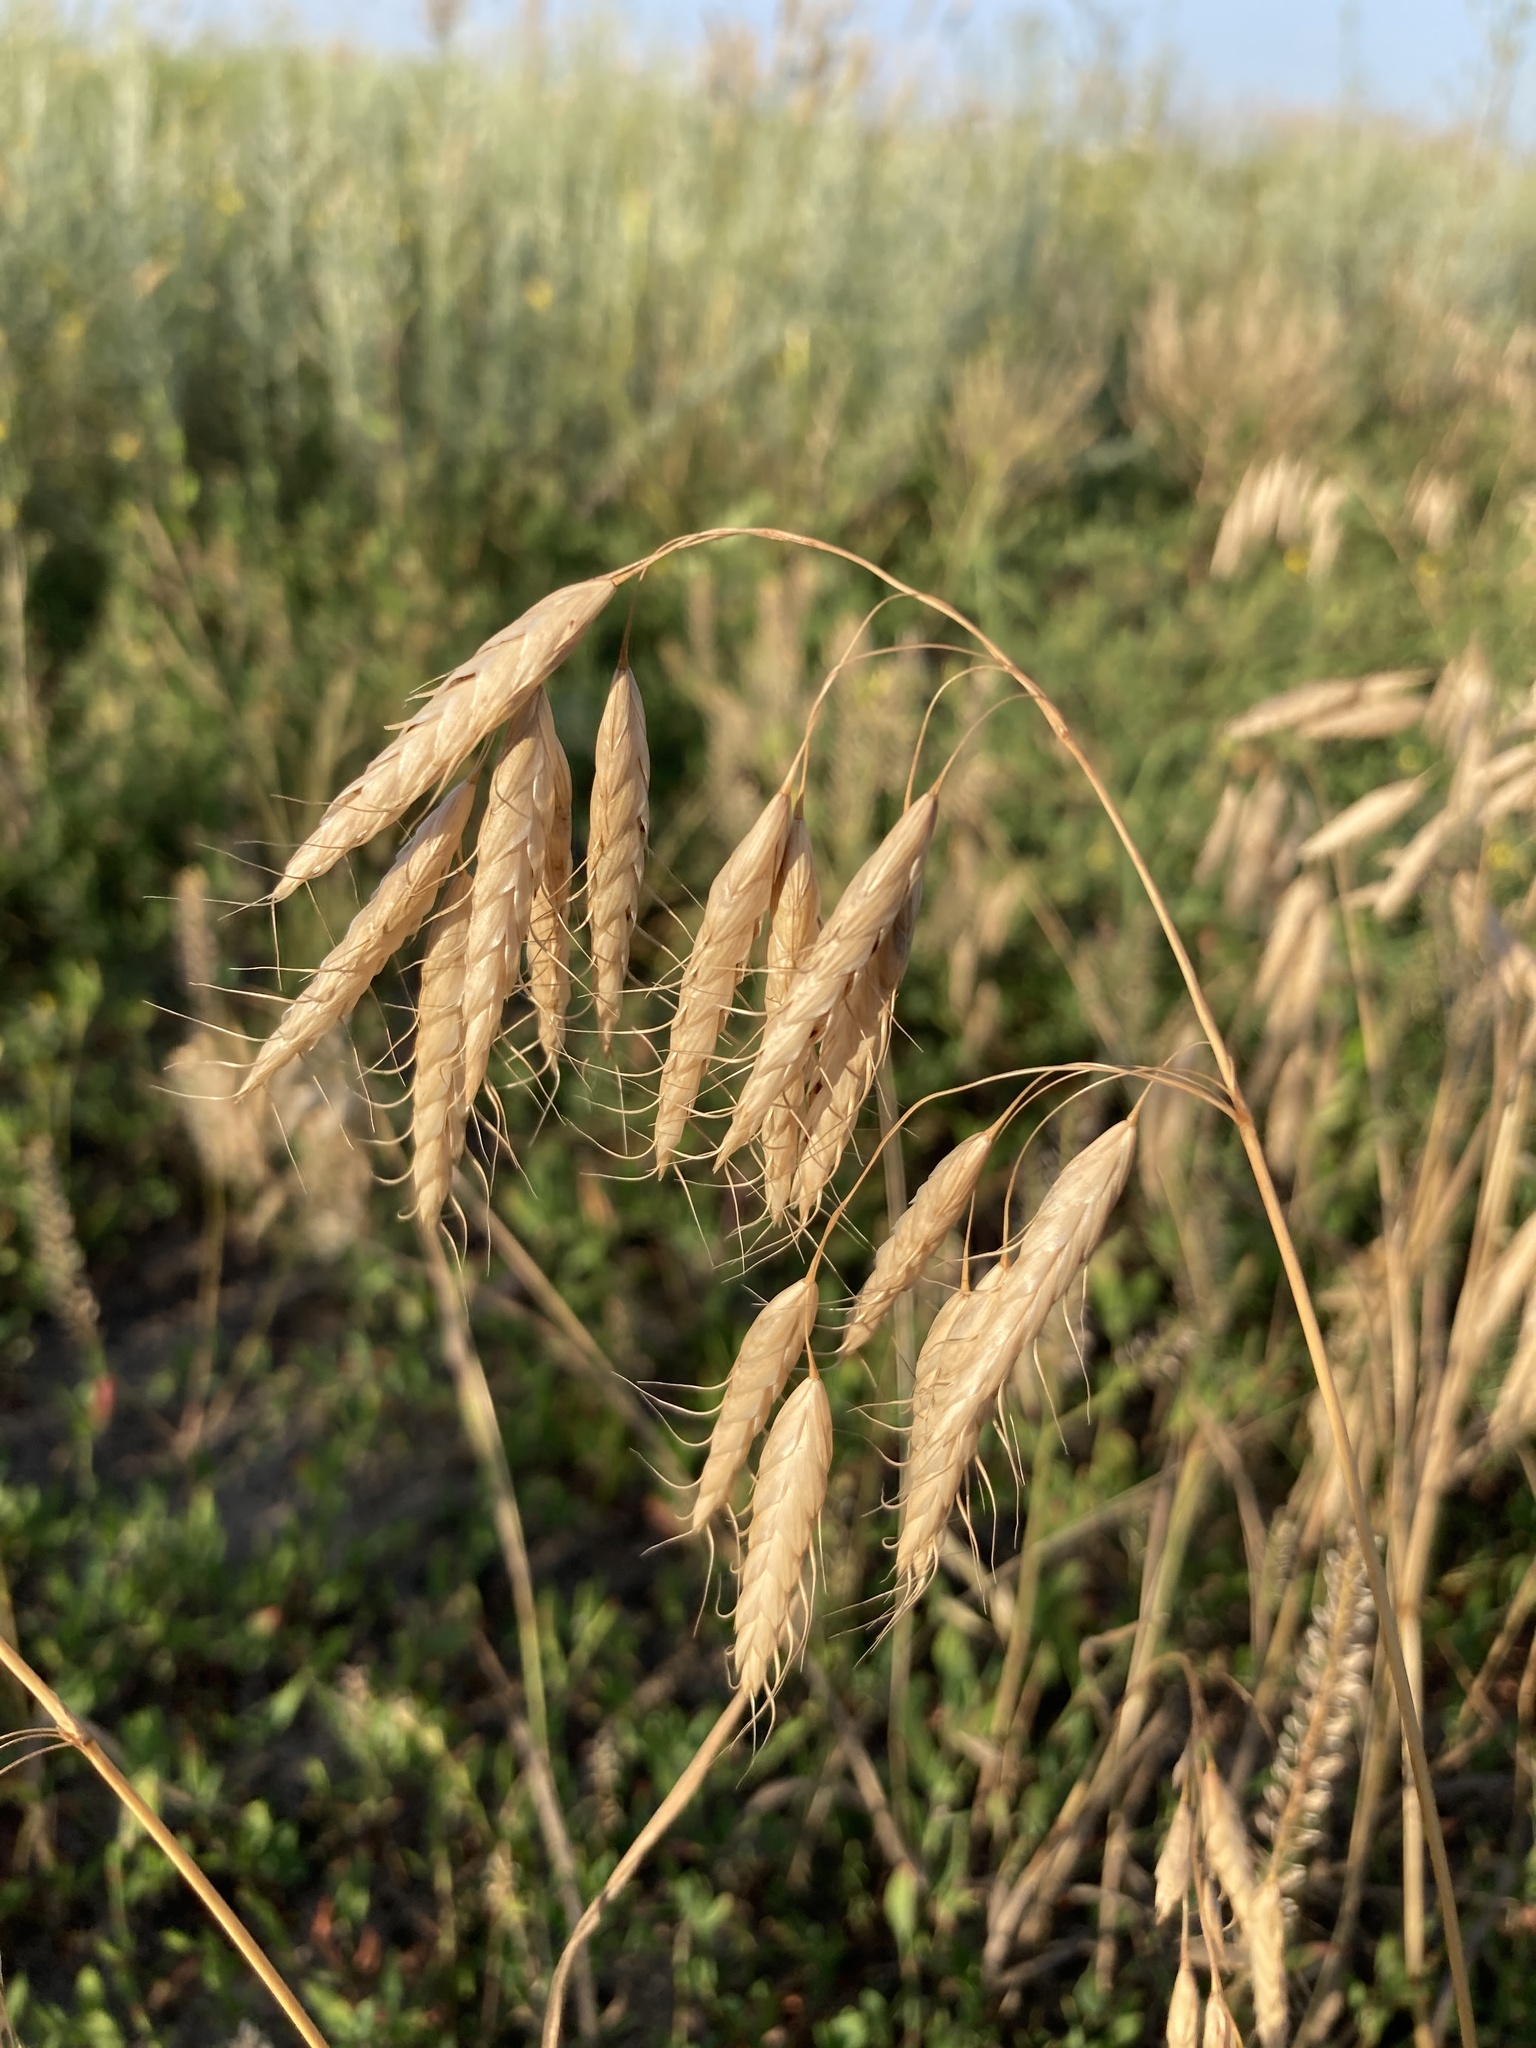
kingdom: Plantae
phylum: Tracheophyta
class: Liliopsida
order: Poales
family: Poaceae
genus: Bromus
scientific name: Bromus squarrosus
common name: Corn brome
